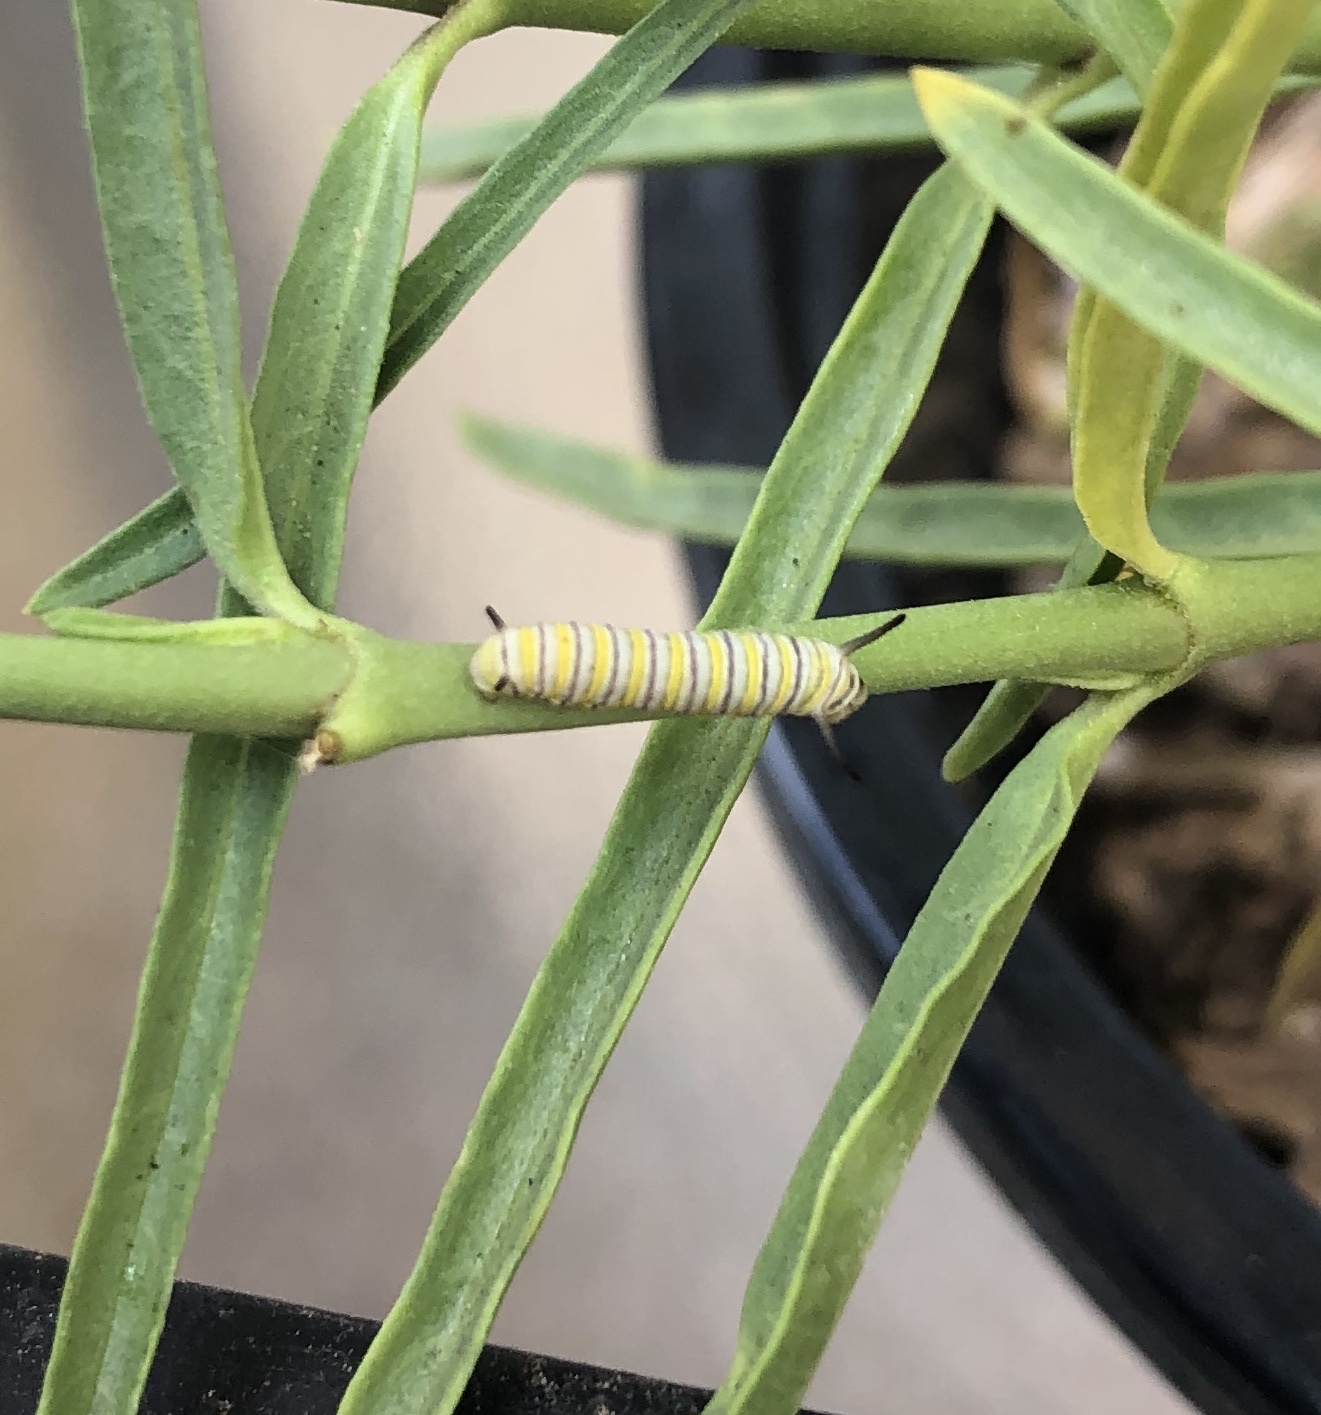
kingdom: Animalia
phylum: Arthropoda
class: Insecta
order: Lepidoptera
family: Nymphalidae
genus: Danaus
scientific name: Danaus plexippus
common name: Monarch
